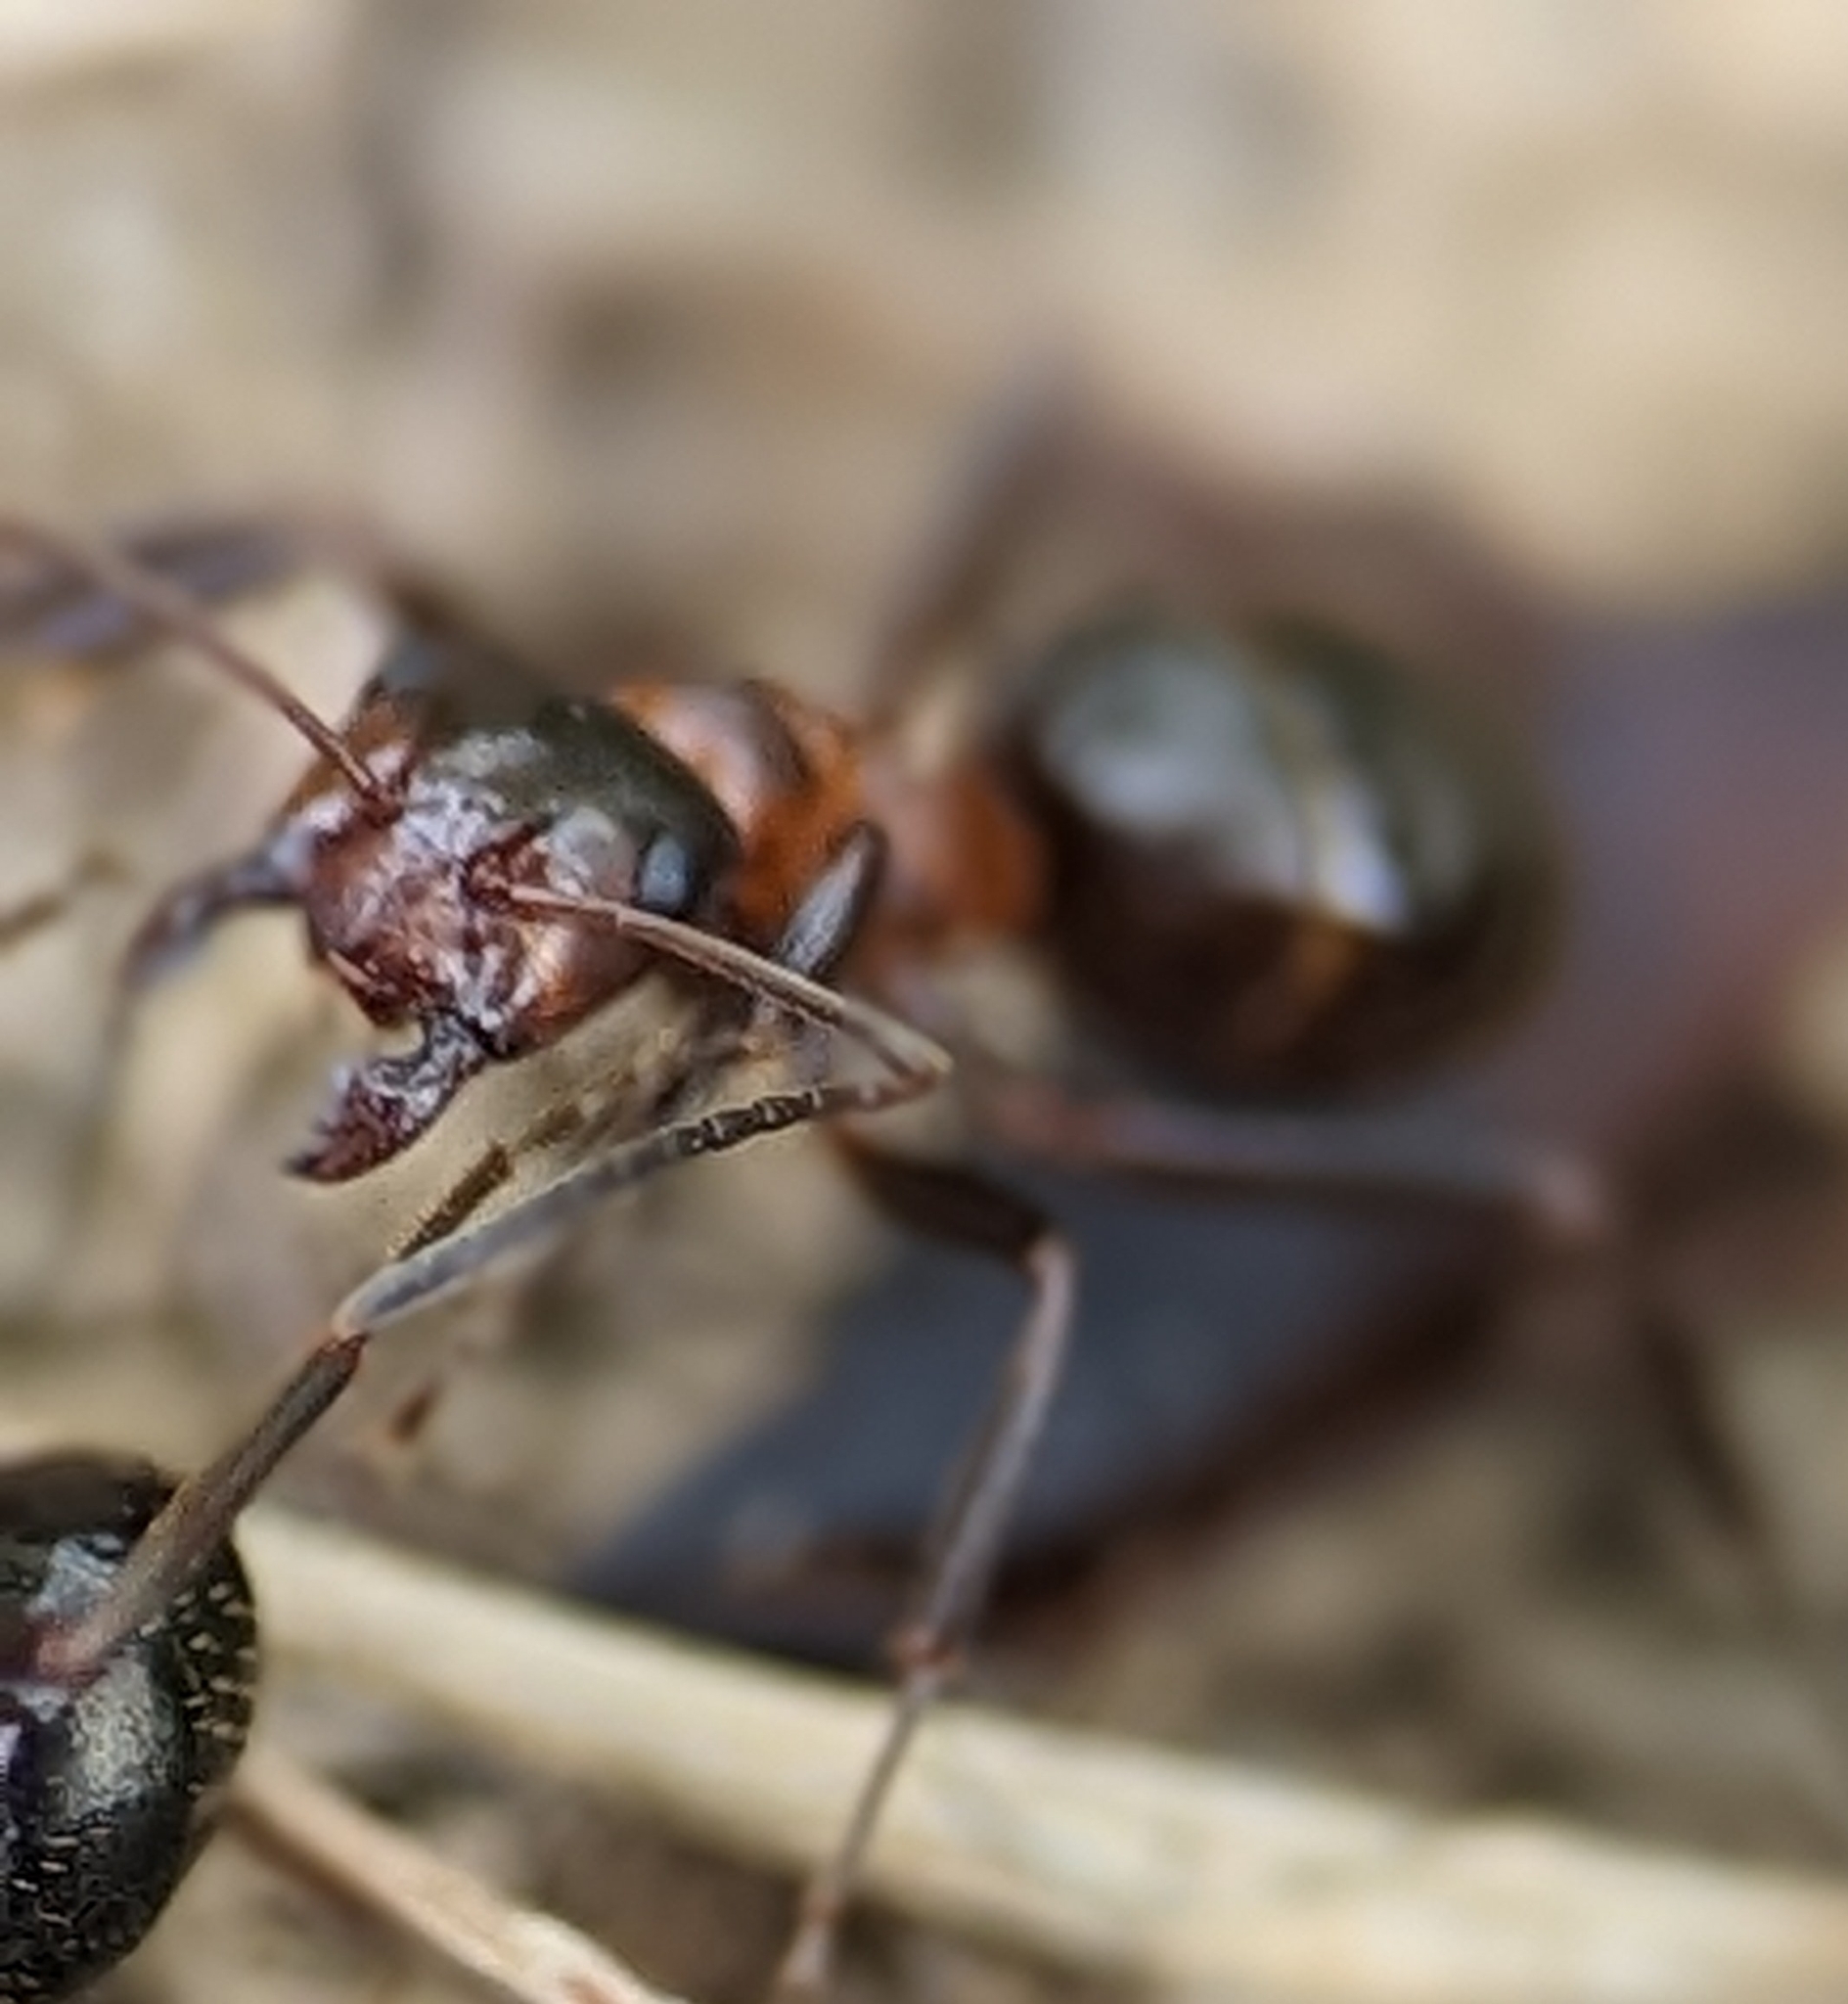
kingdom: Animalia
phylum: Arthropoda
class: Insecta
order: Hymenoptera
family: Formicidae
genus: Formica
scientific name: Formica ulkei
